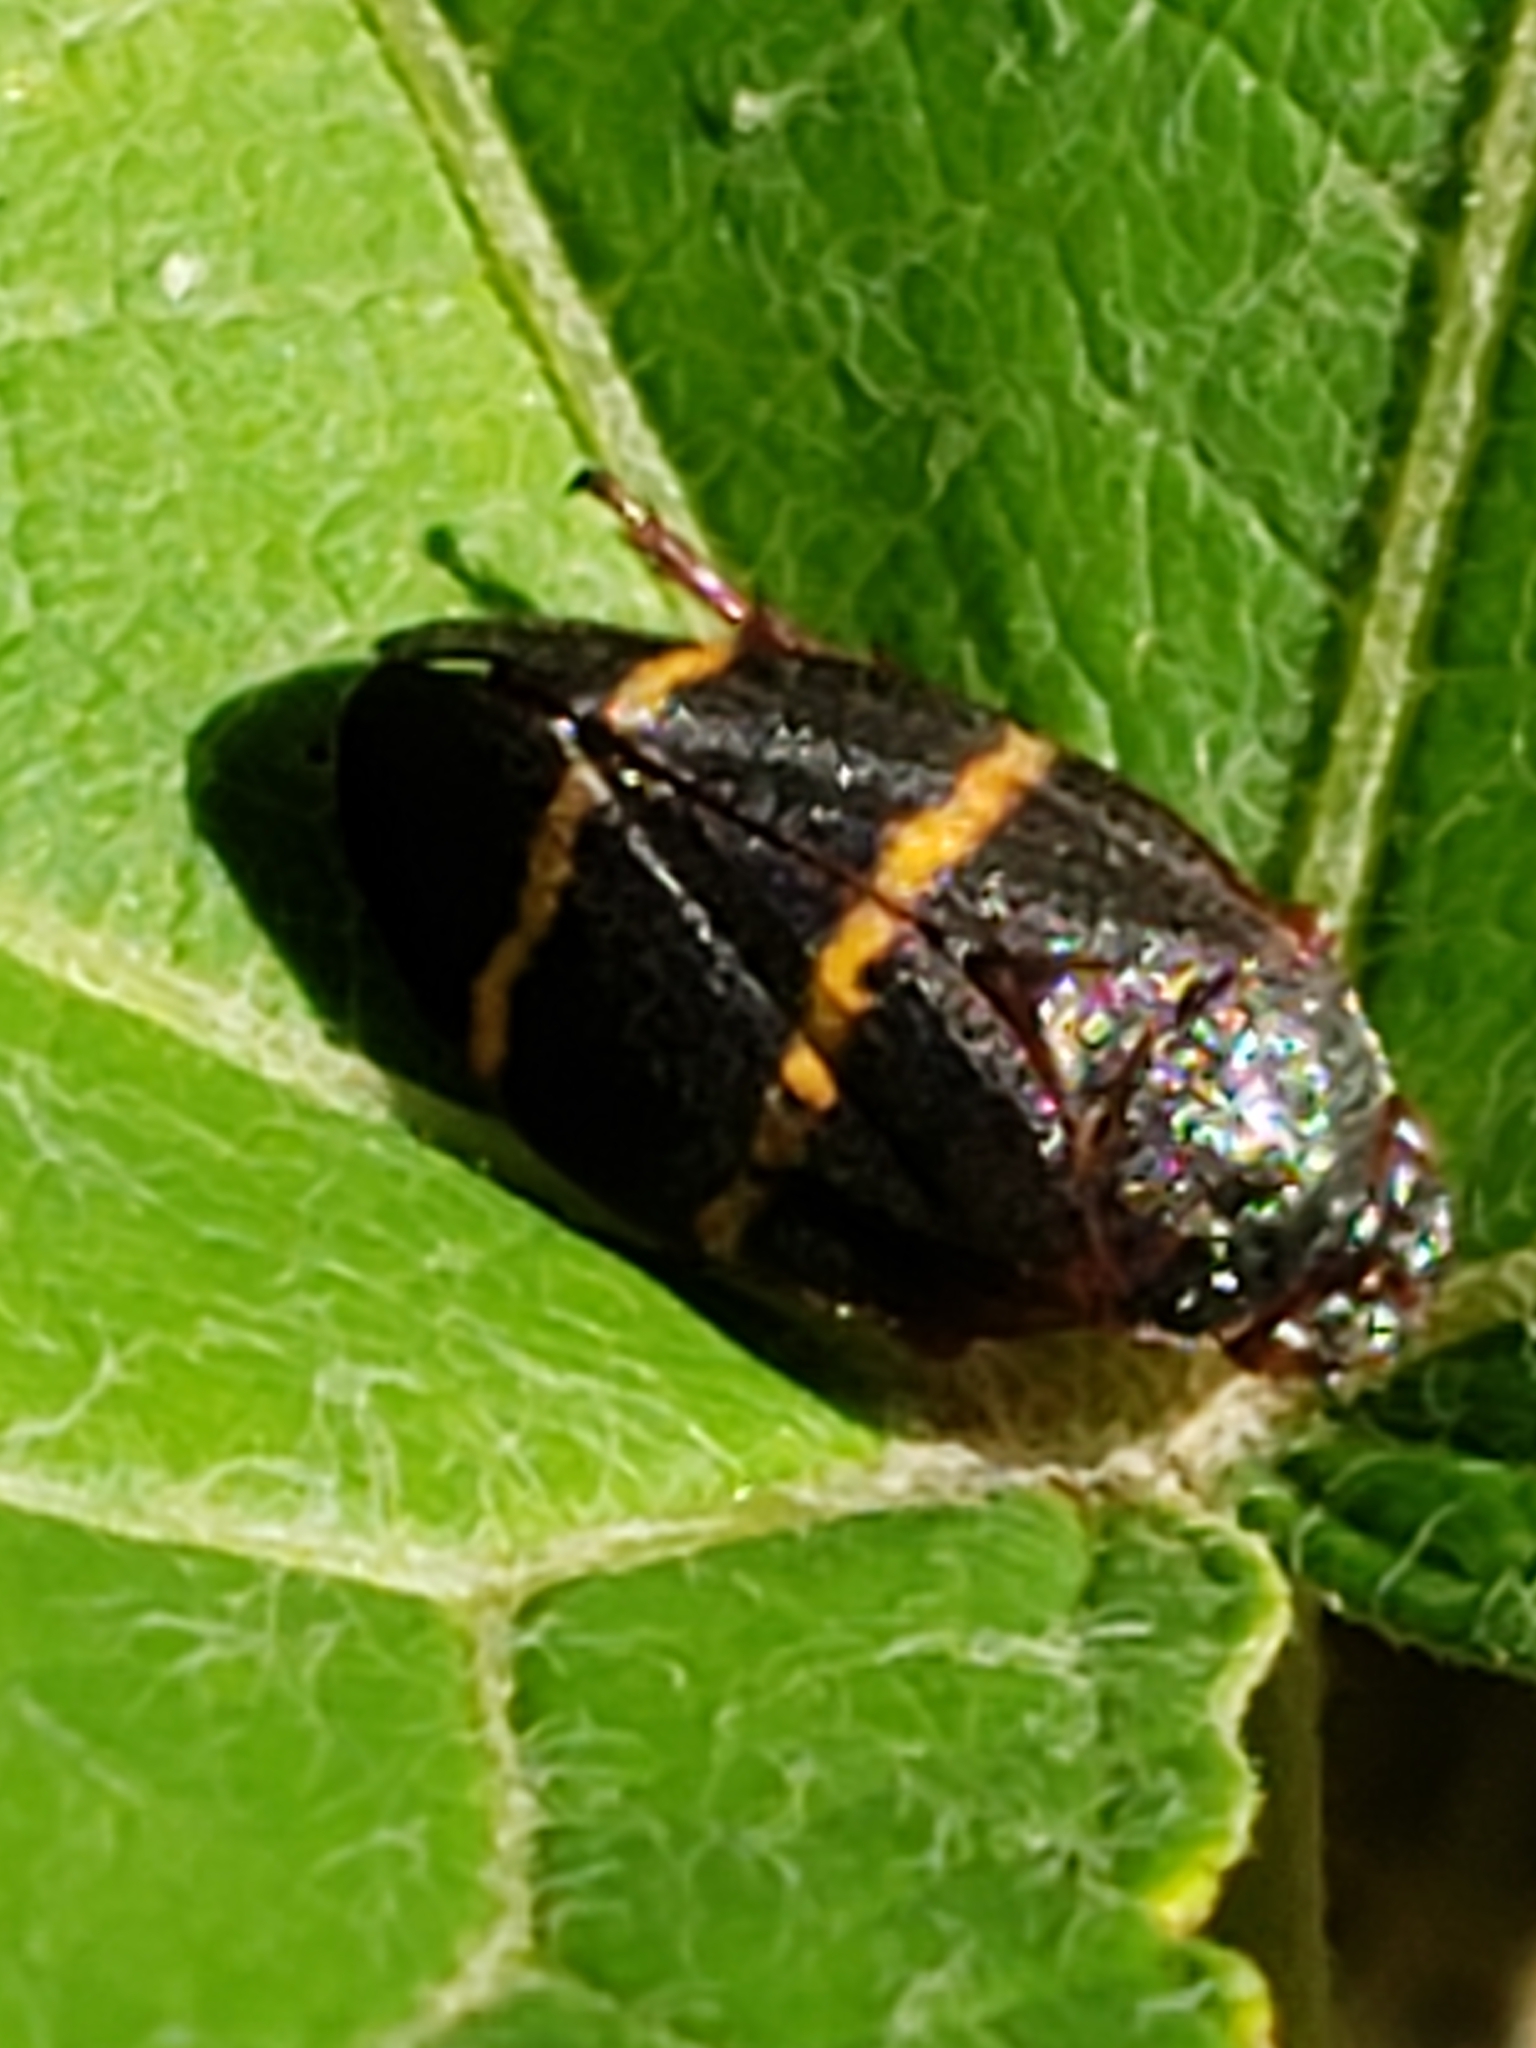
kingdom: Animalia
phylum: Arthropoda
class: Insecta
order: Hemiptera
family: Cercopidae
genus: Prosapia
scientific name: Prosapia bicincta
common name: Twolined spittlebug
